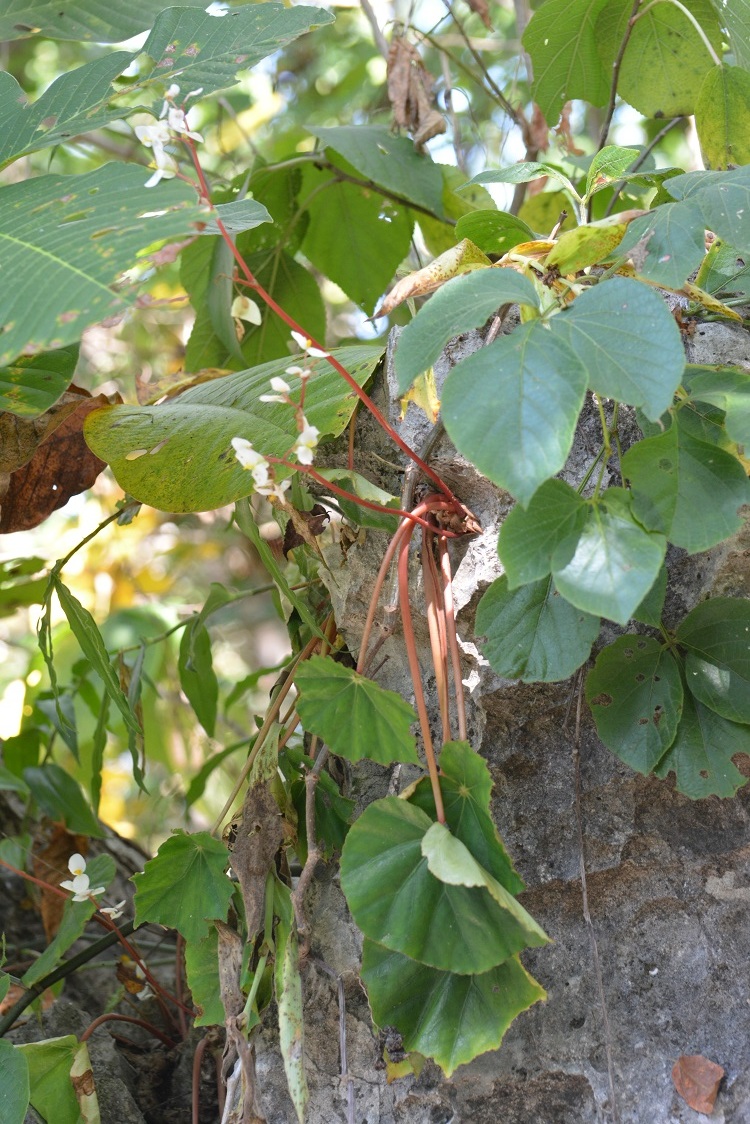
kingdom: Plantae
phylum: Tracheophyta
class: Magnoliopsida
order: Cucurbitales
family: Begoniaceae
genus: Begonia
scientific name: Begonia sericoneura
